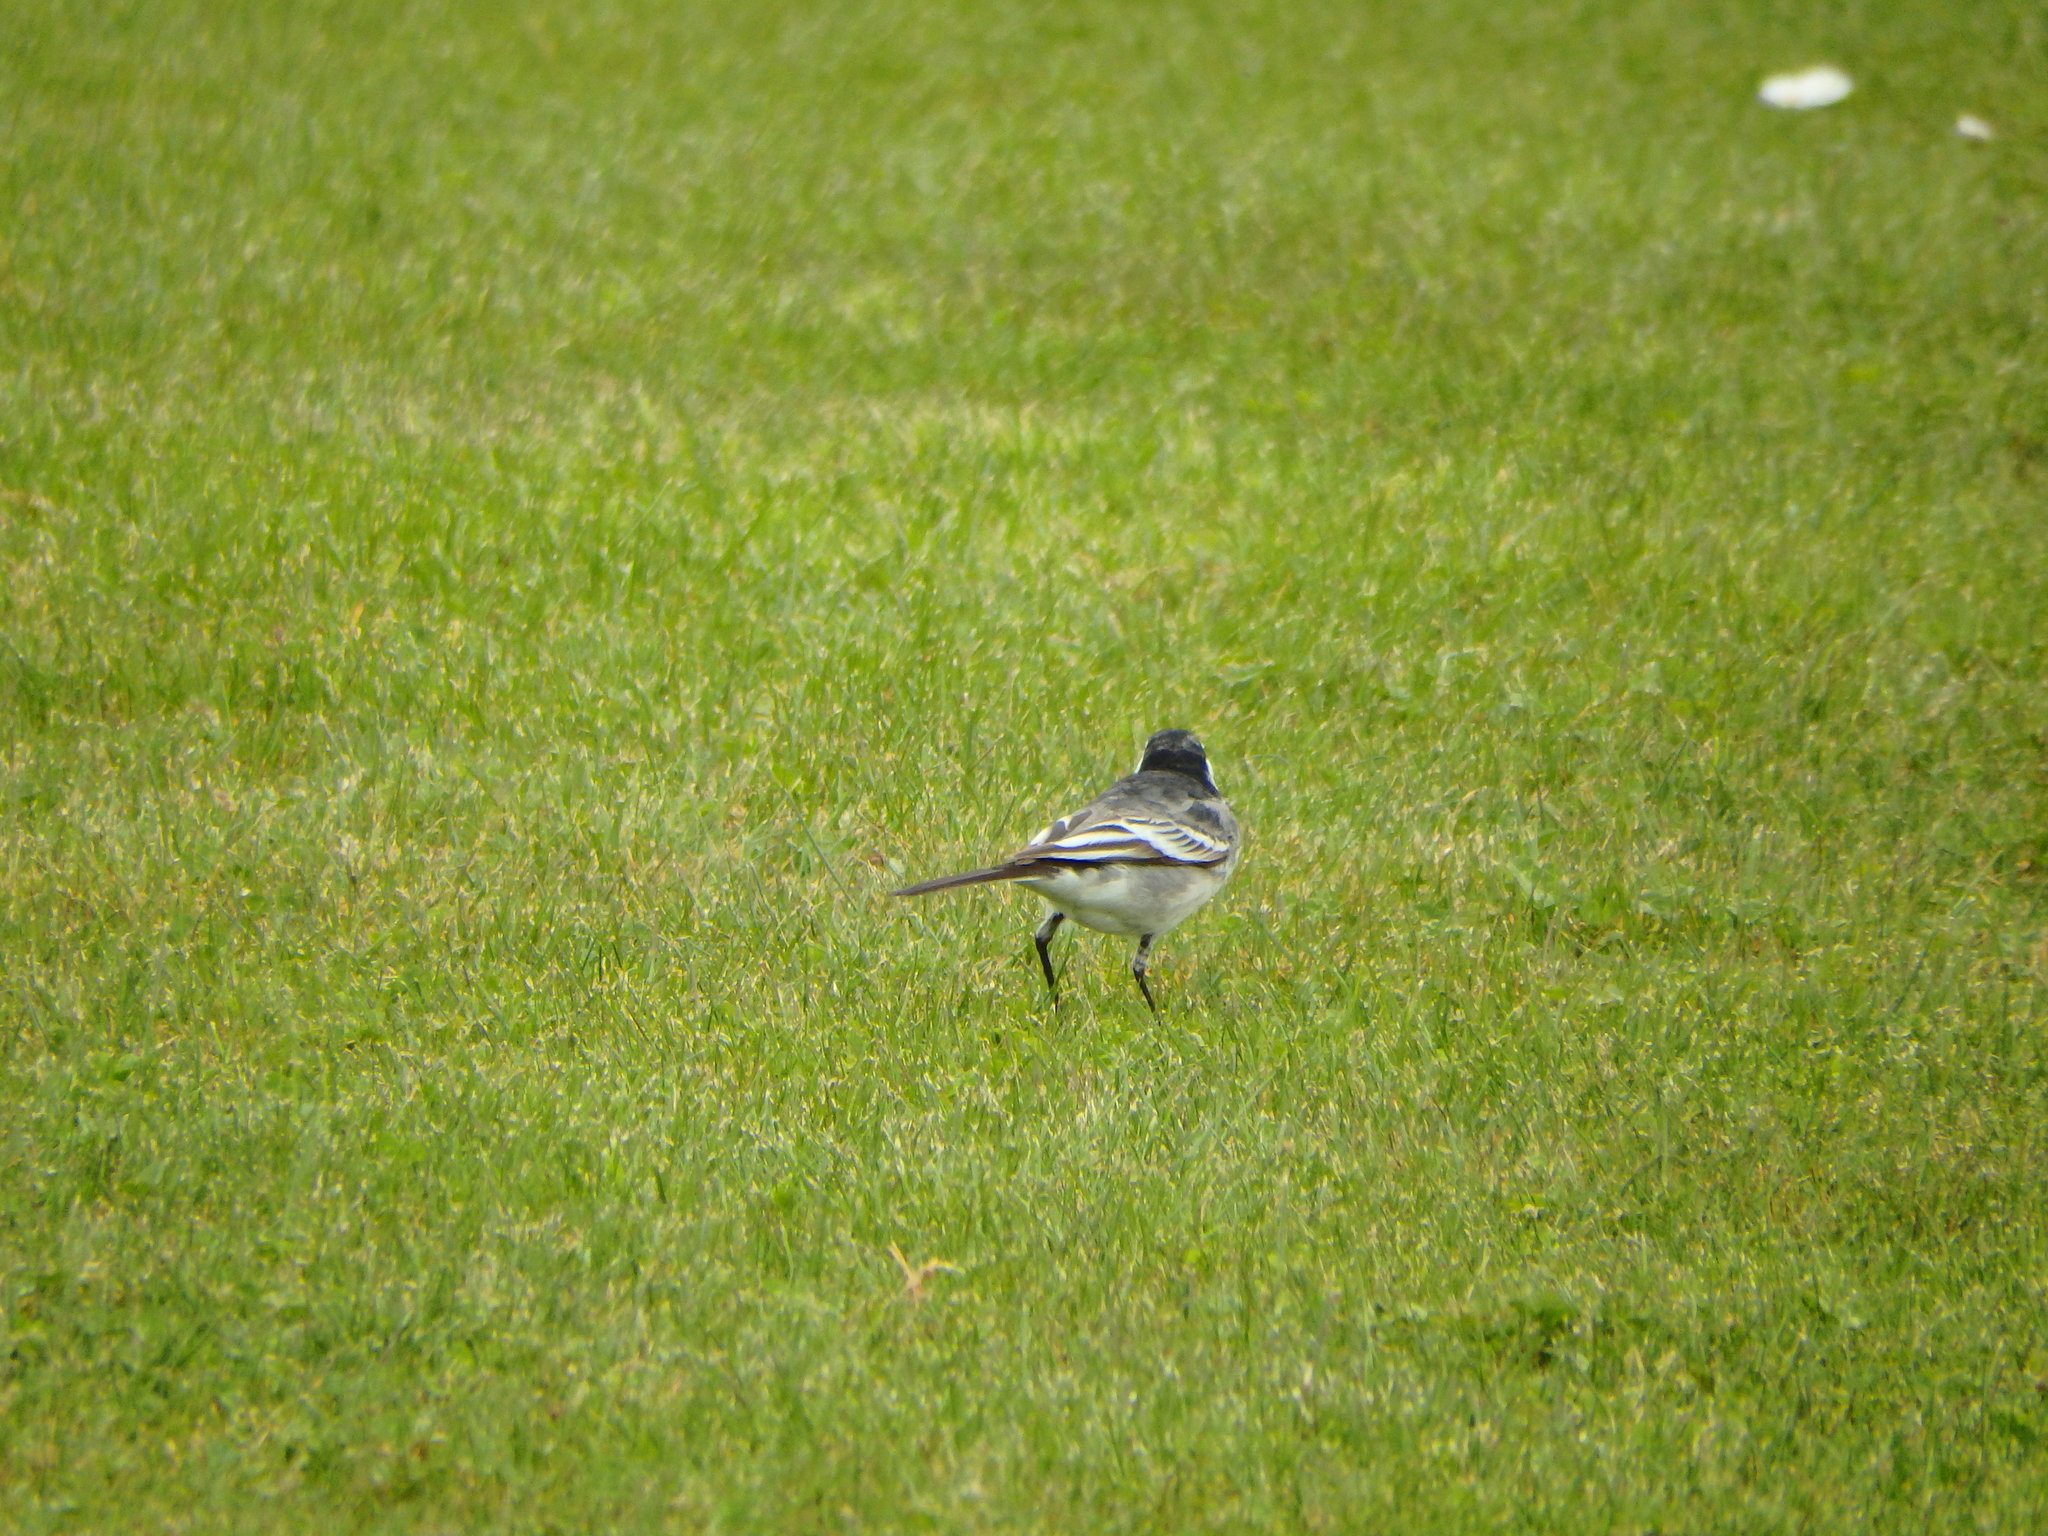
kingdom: Animalia
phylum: Chordata
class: Aves
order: Passeriformes
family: Motacillidae
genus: Motacilla
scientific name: Motacilla alba
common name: White wagtail
